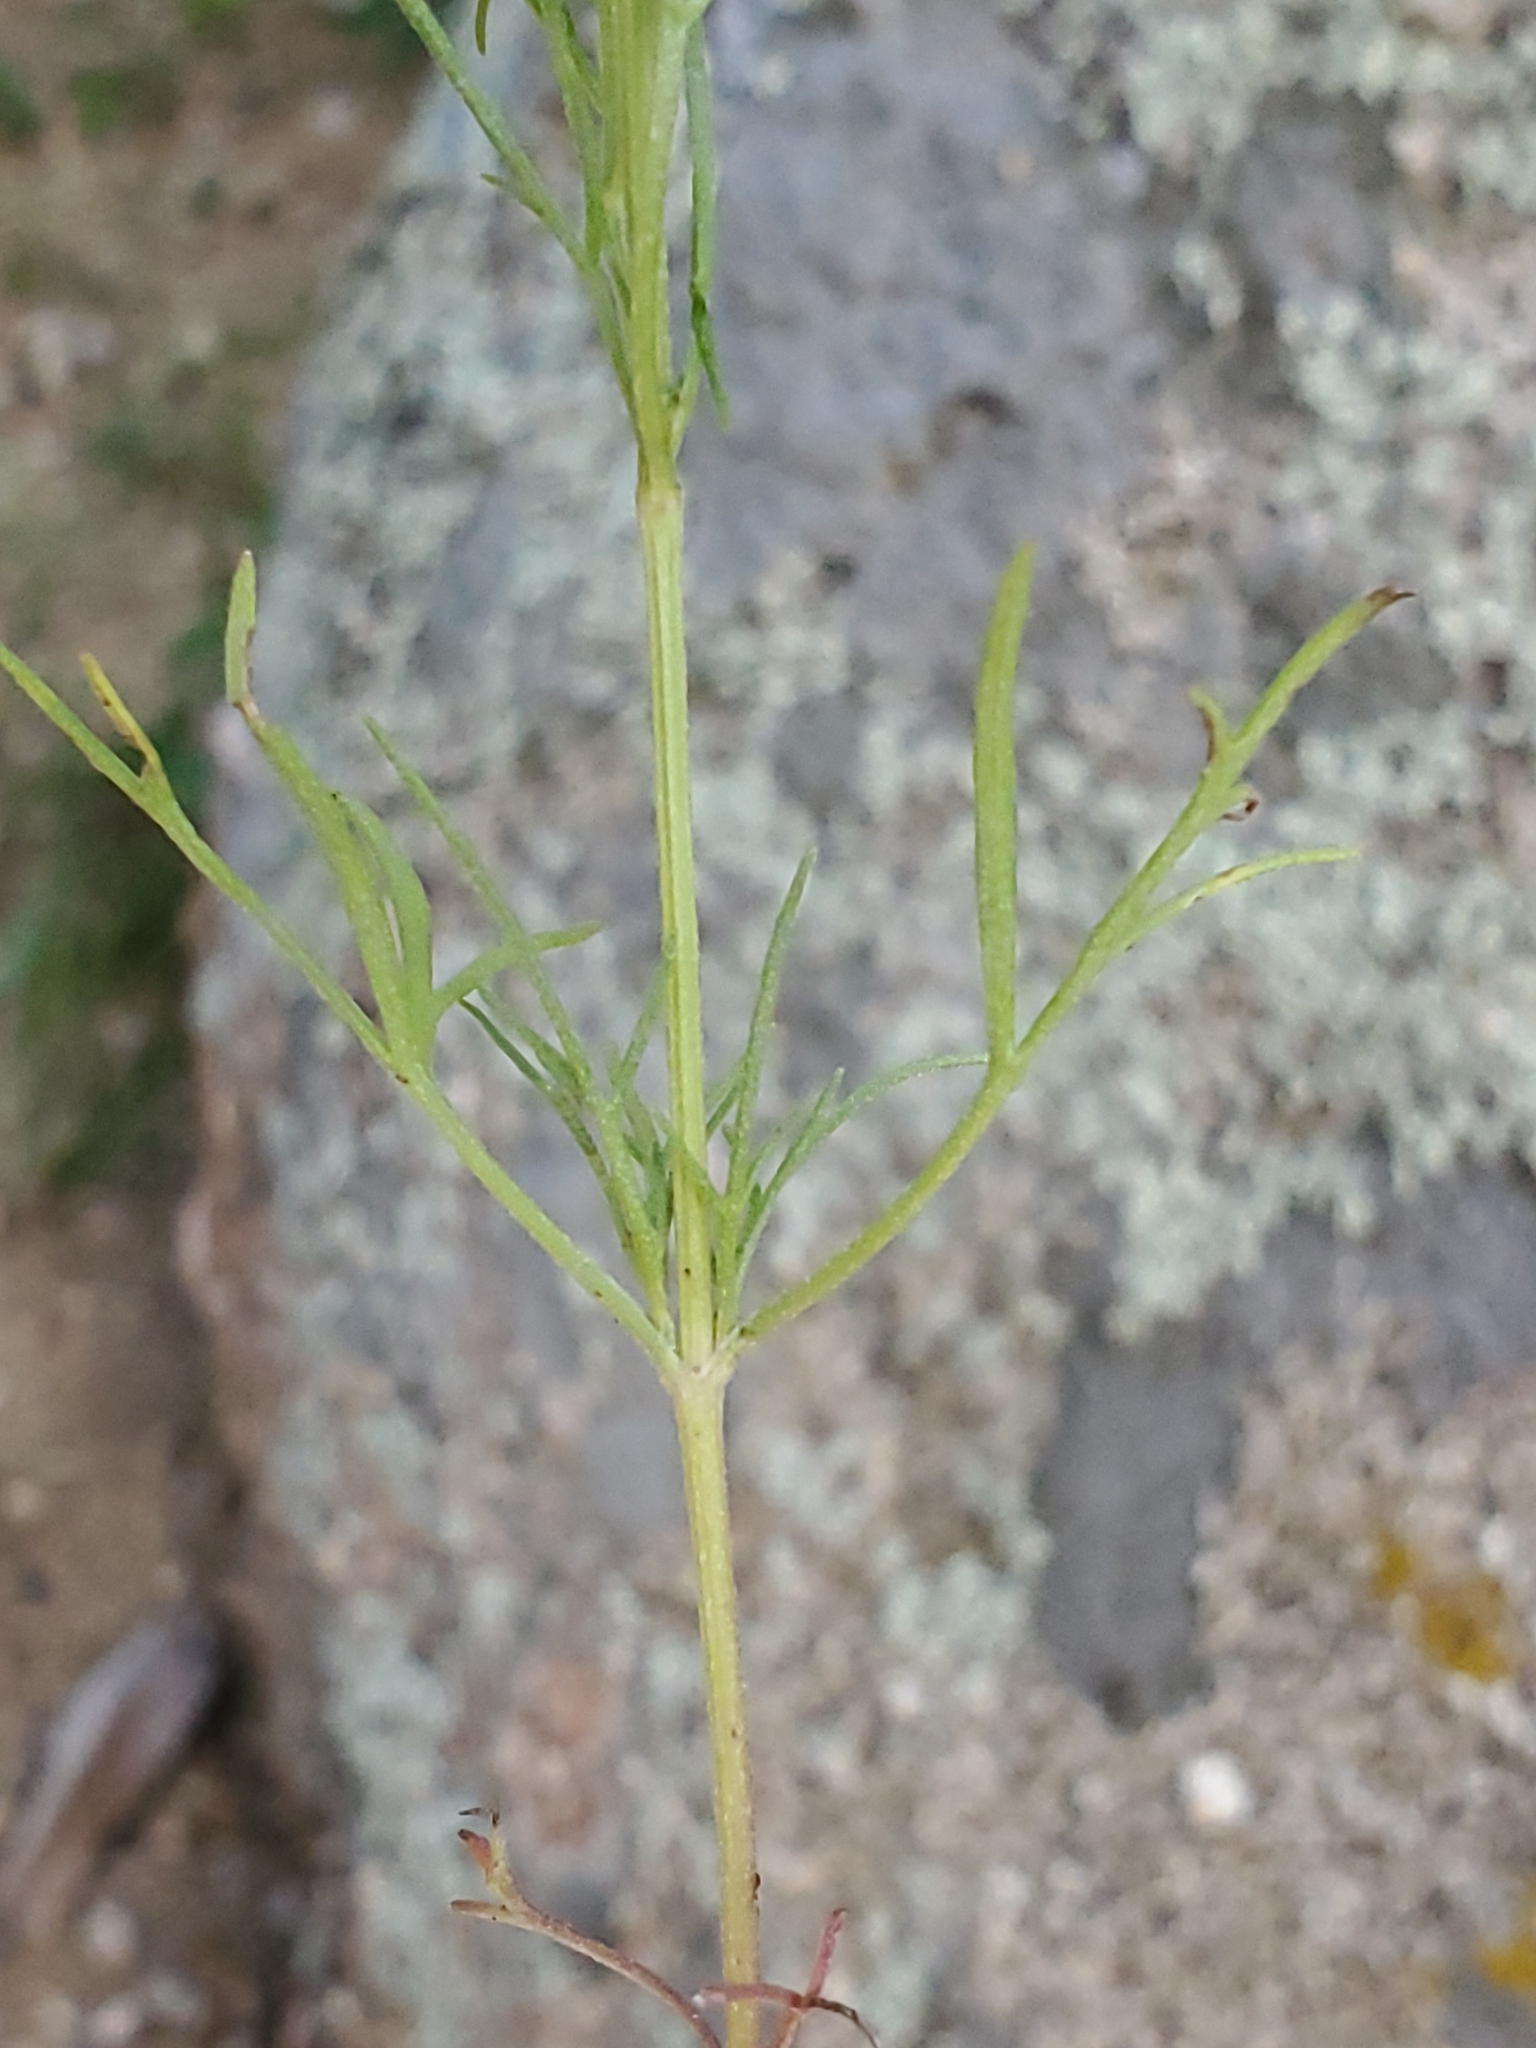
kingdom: Plantae
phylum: Tracheophyta
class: Magnoliopsida
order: Asterales
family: Asteraceae
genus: Schkuhria
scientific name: Schkuhria pinnata
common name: Dwarf marigold
